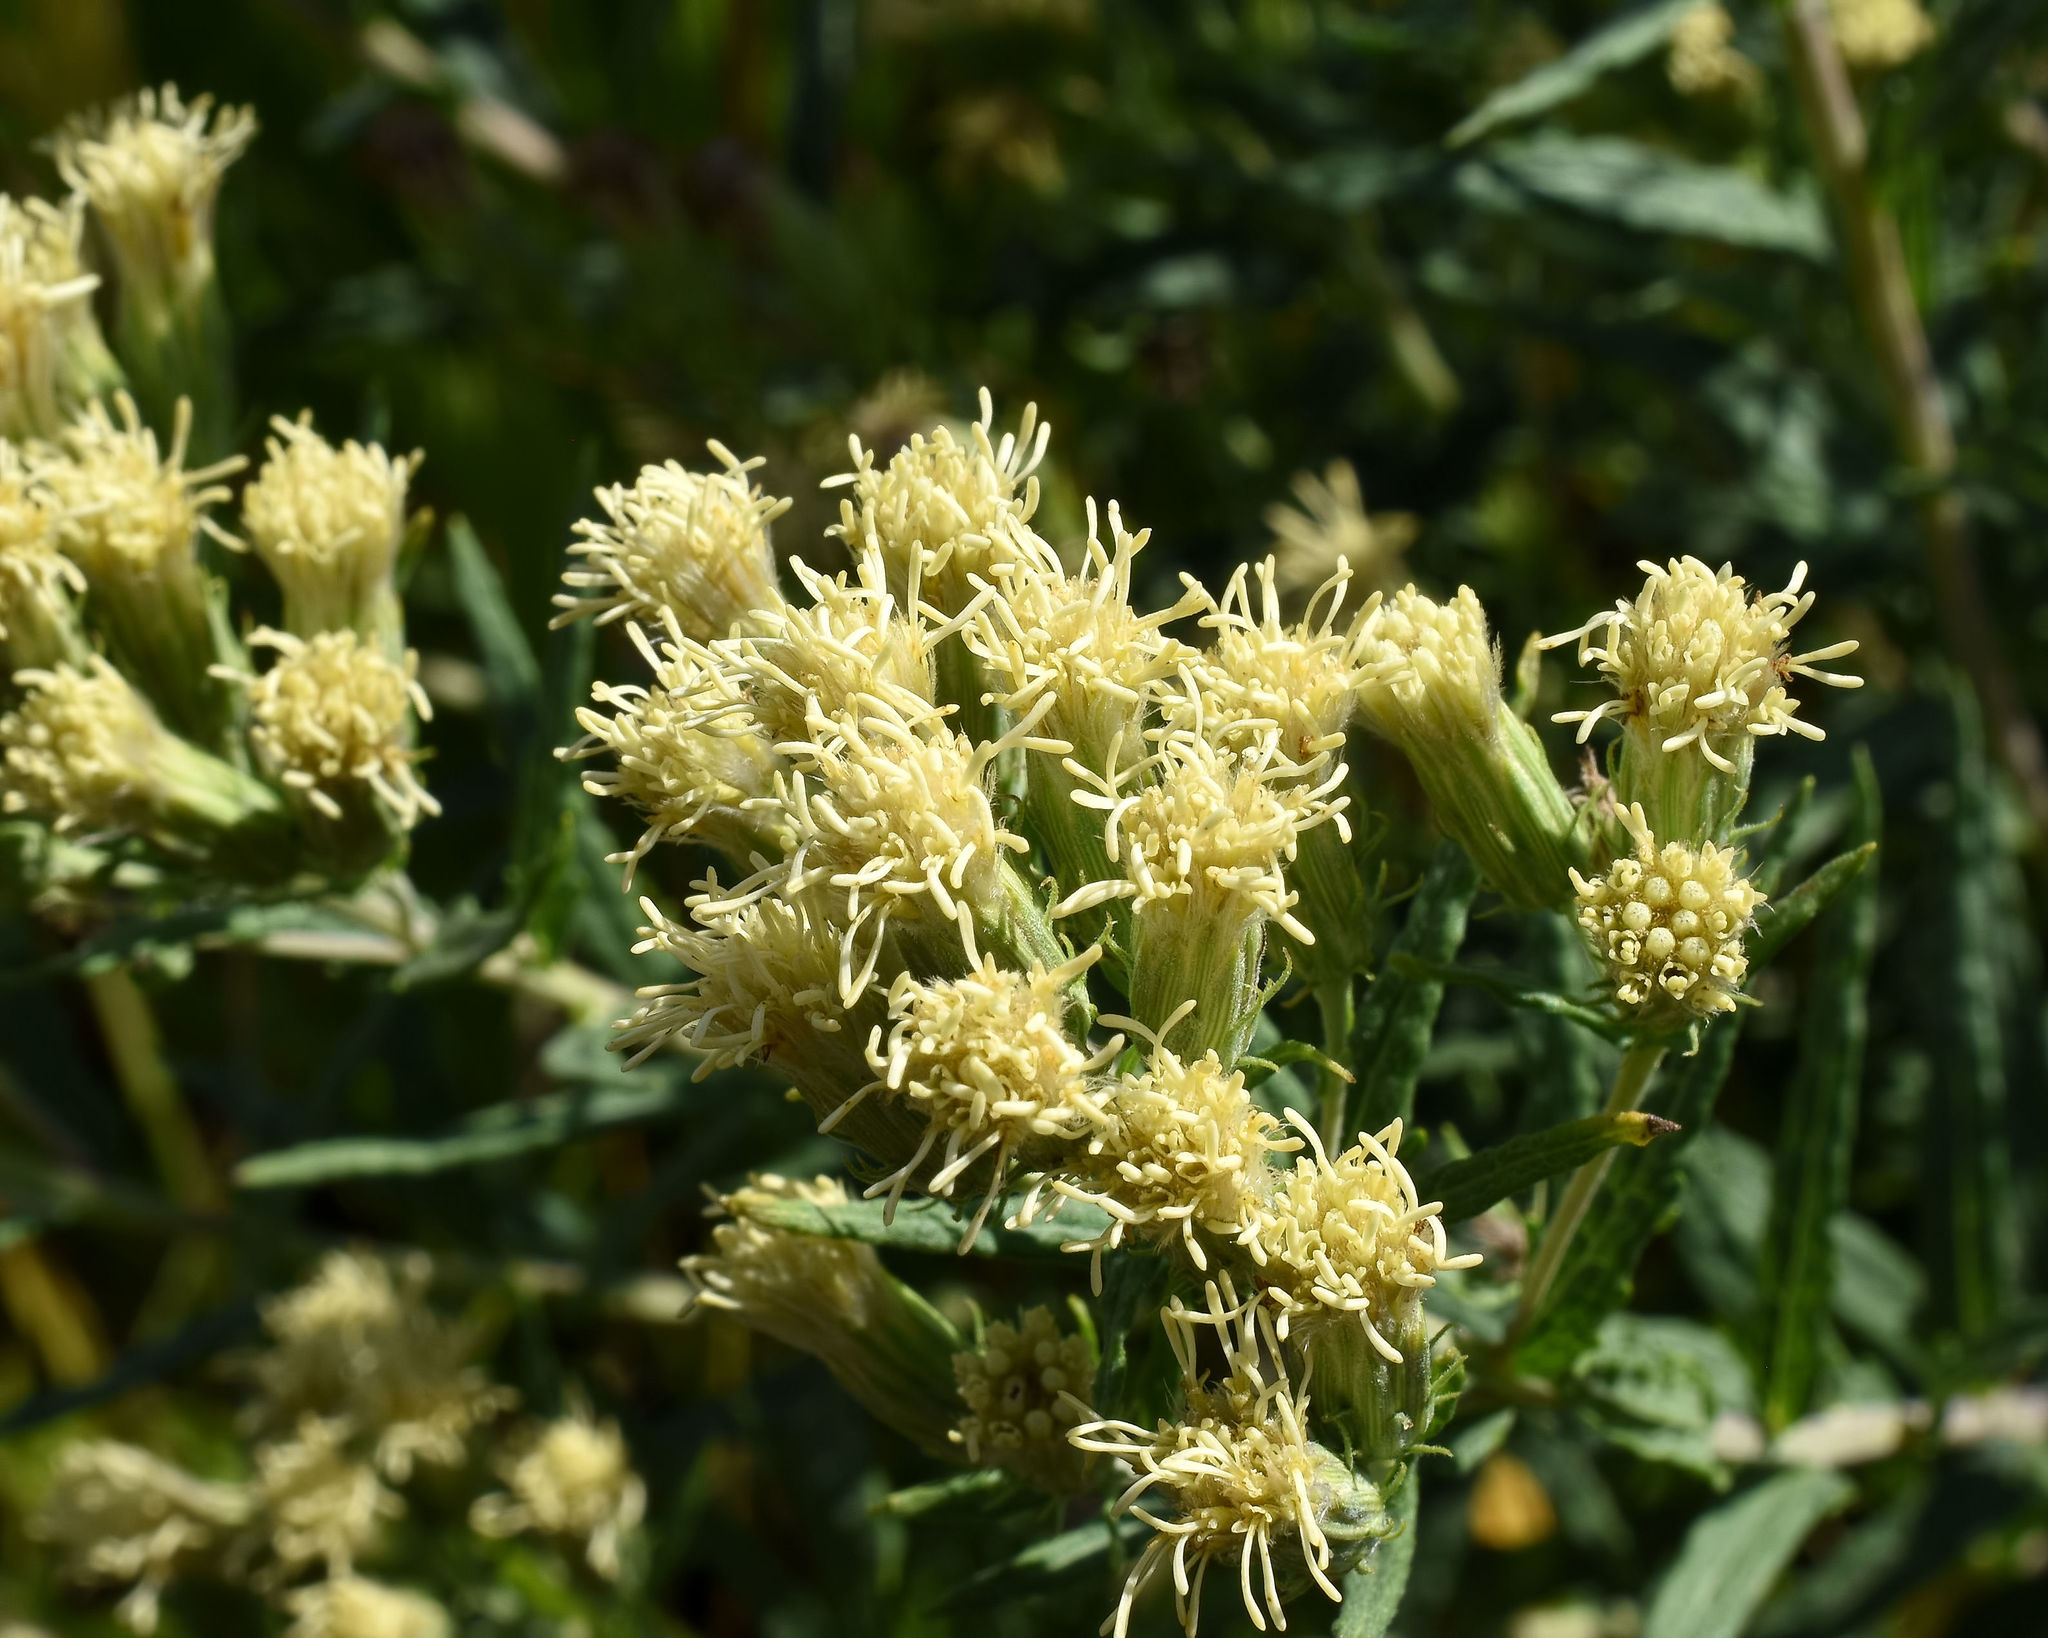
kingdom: Plantae
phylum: Tracheophyta
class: Magnoliopsida
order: Asterales
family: Asteraceae
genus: Brickellia
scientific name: Brickellia eupatorioides
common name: False boneset
